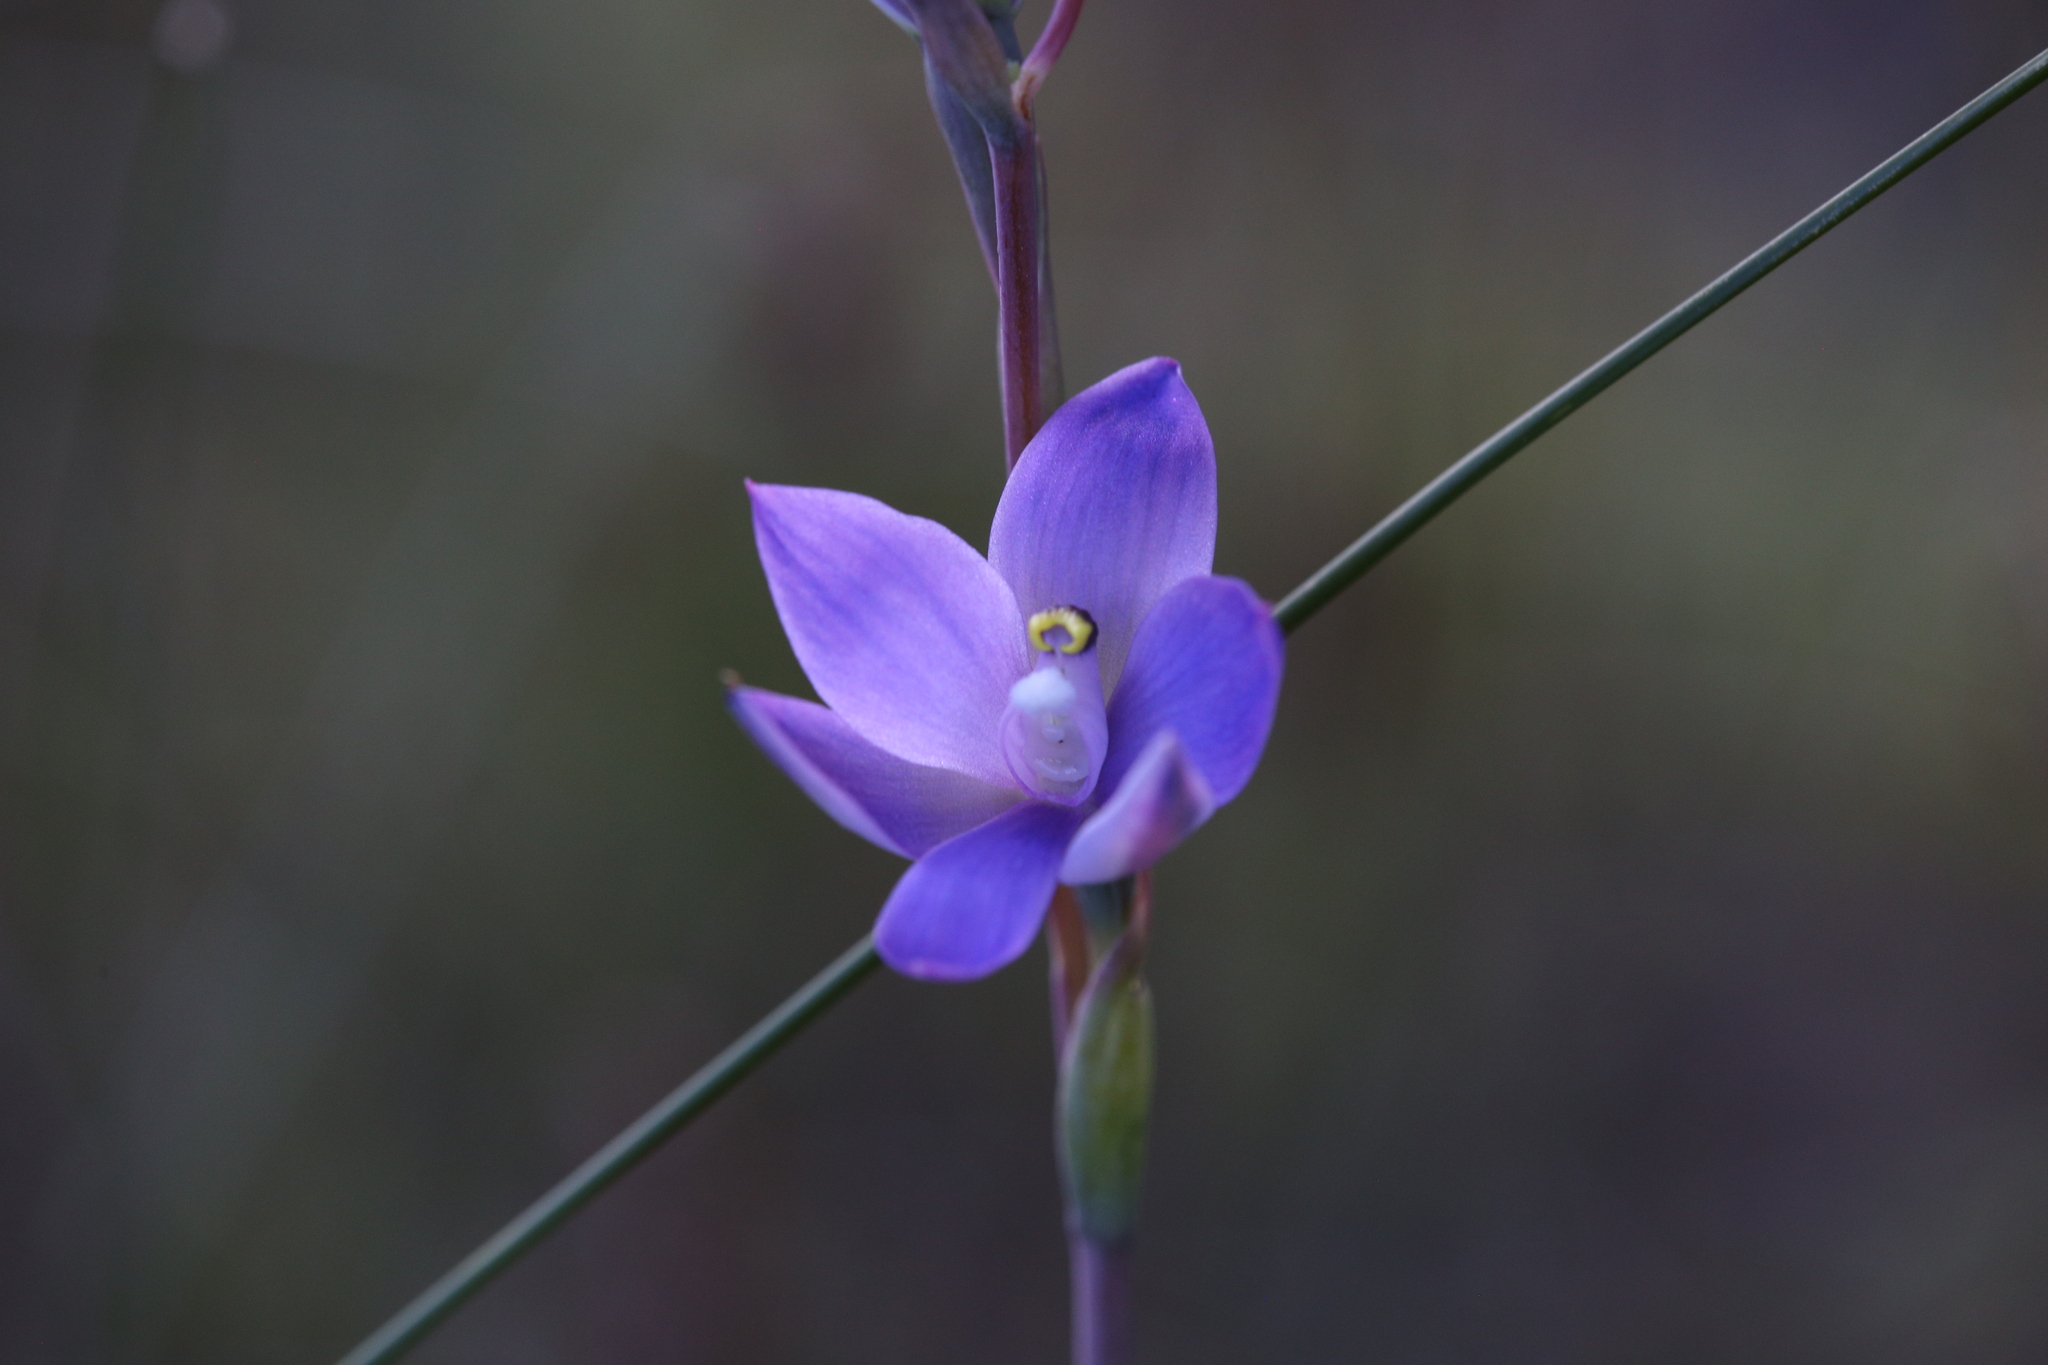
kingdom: Plantae
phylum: Tracheophyta
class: Liliopsida
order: Asparagales
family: Orchidaceae
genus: Thelymitra
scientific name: Thelymitra graminea
